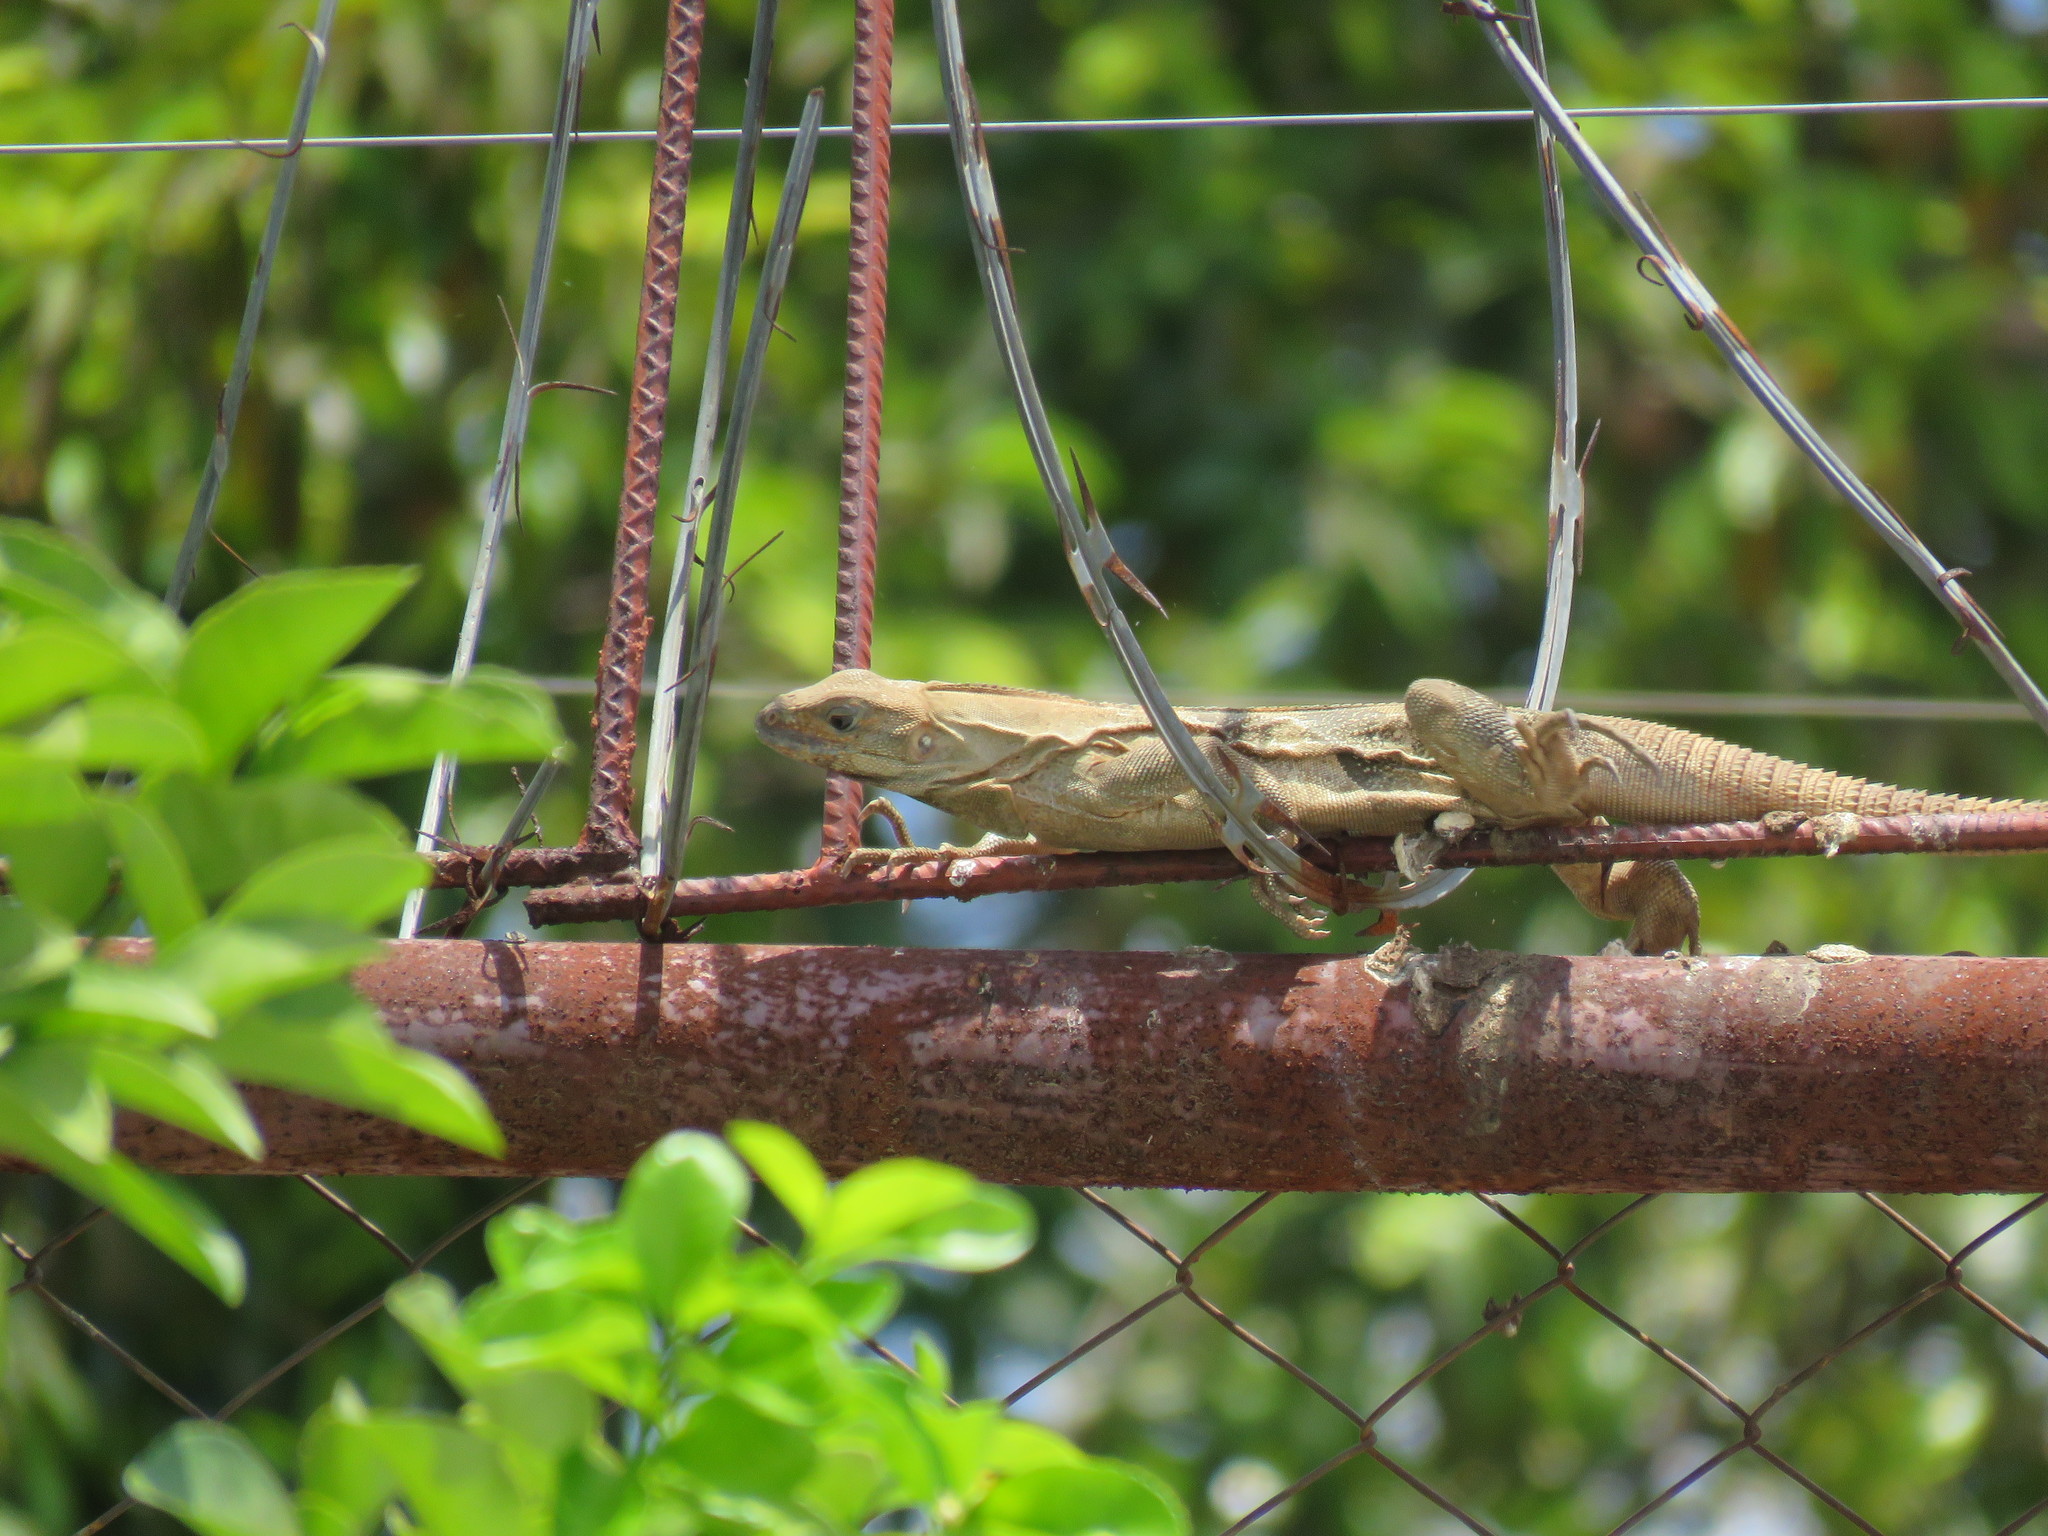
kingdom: Animalia
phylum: Chordata
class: Squamata
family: Iguanidae
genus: Ctenosaura
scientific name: Ctenosaura similis
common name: Black spiny-tailed iguana
